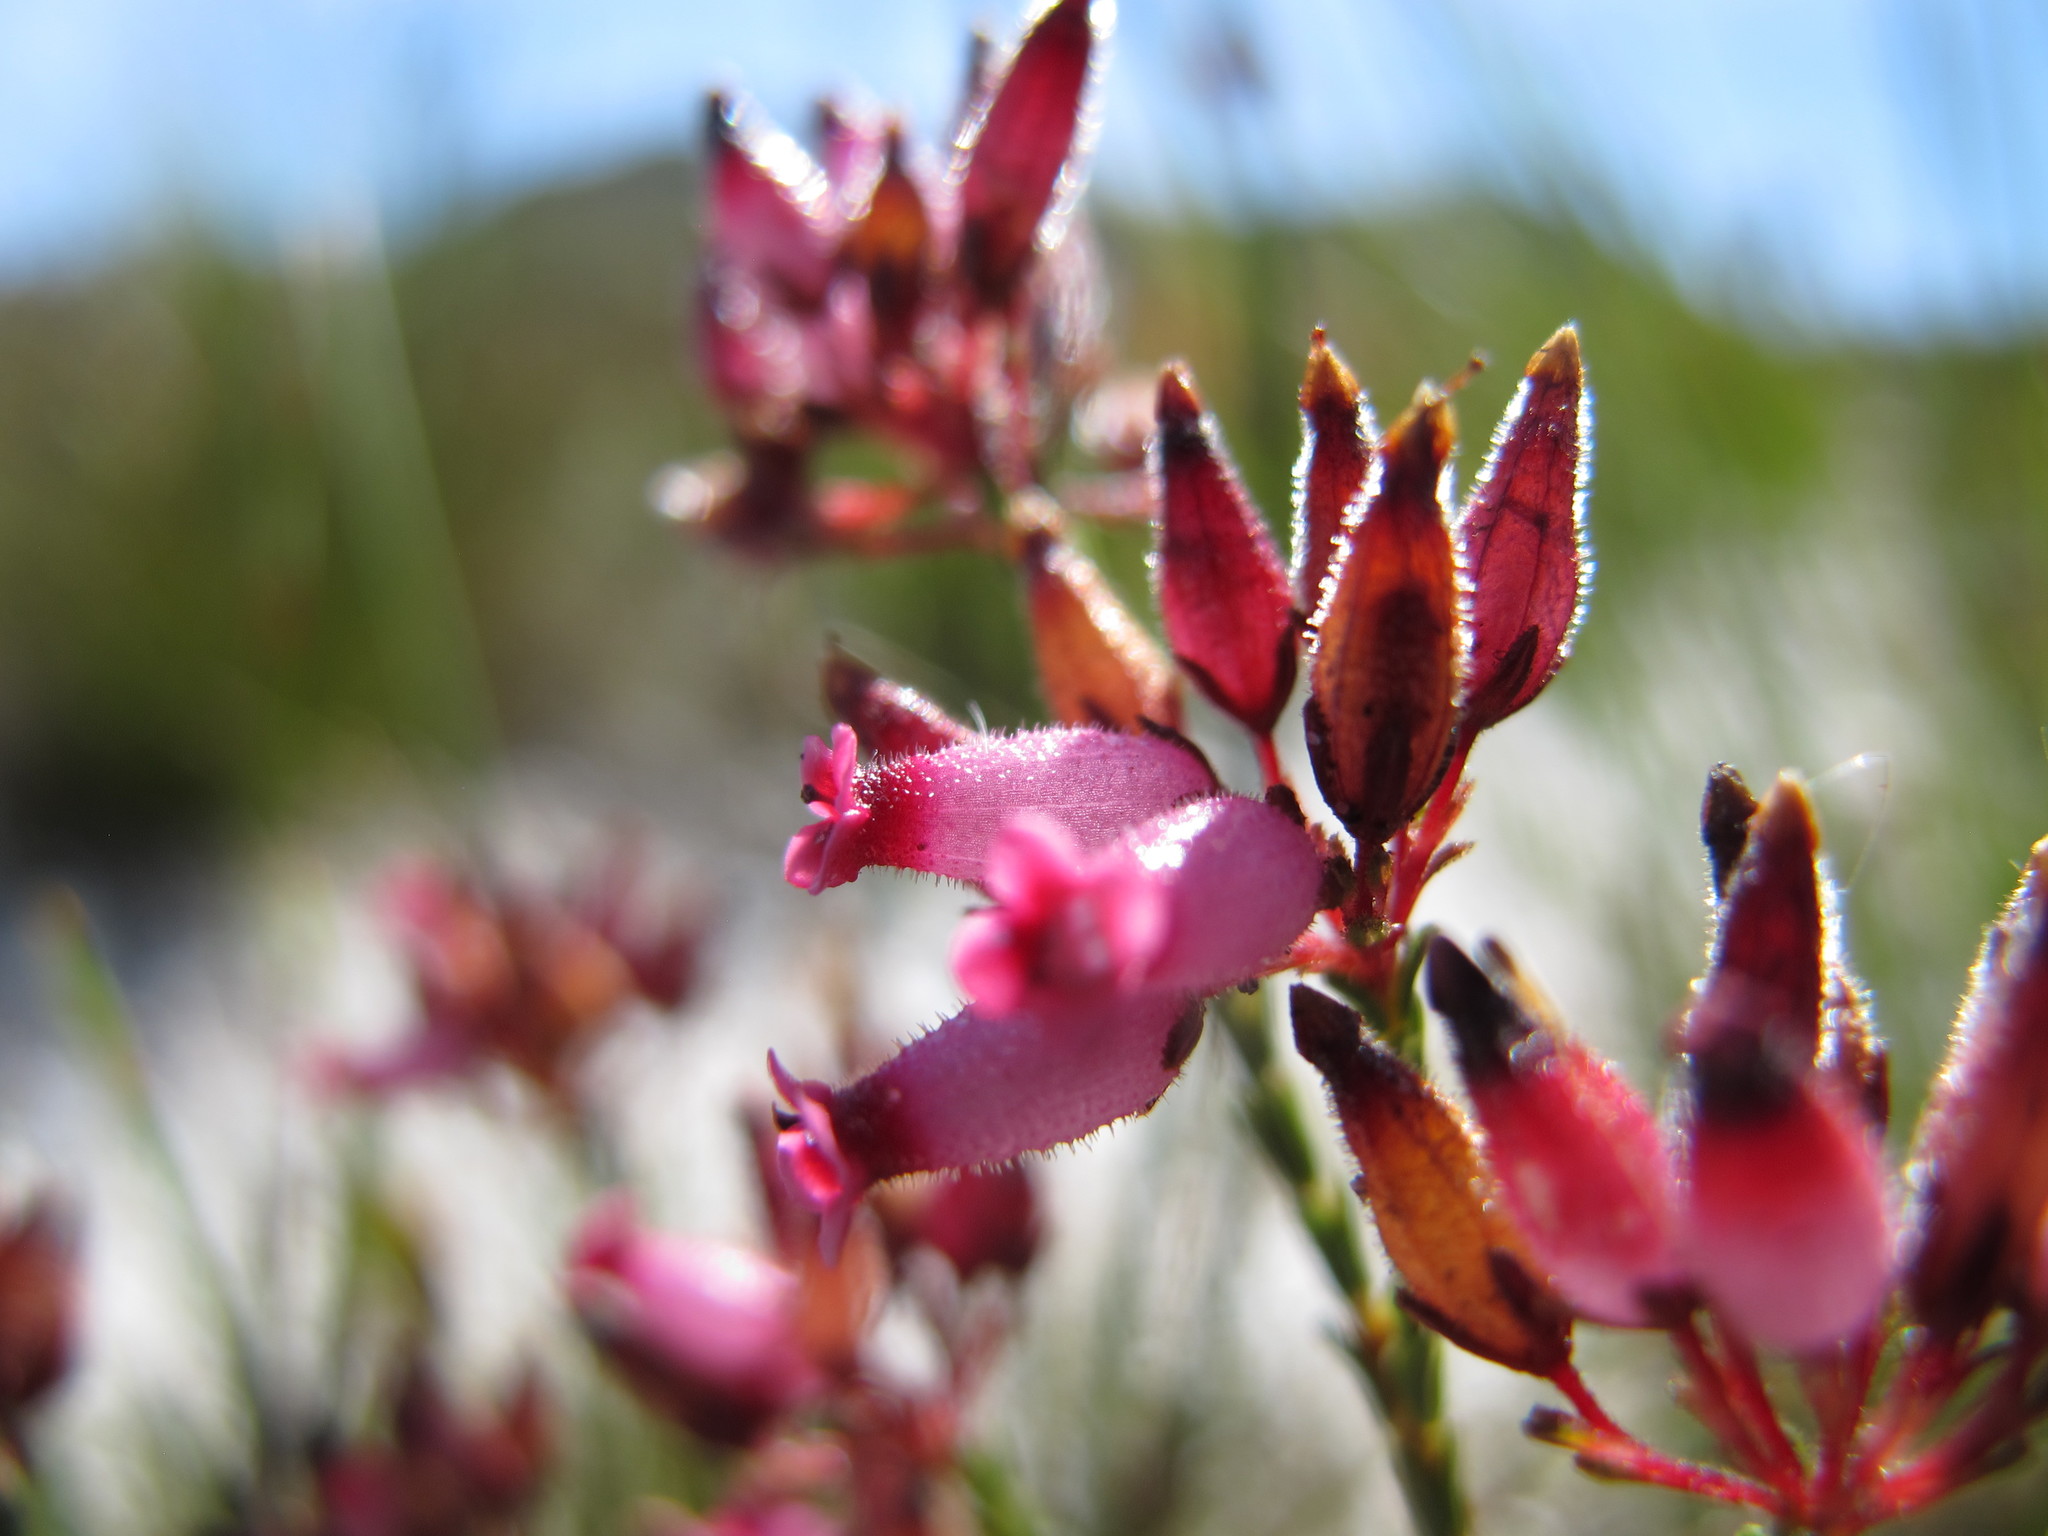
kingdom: Plantae
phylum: Tracheophyta
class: Magnoliopsida
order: Ericales
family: Ericaceae
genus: Erica
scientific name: Erica cristata
